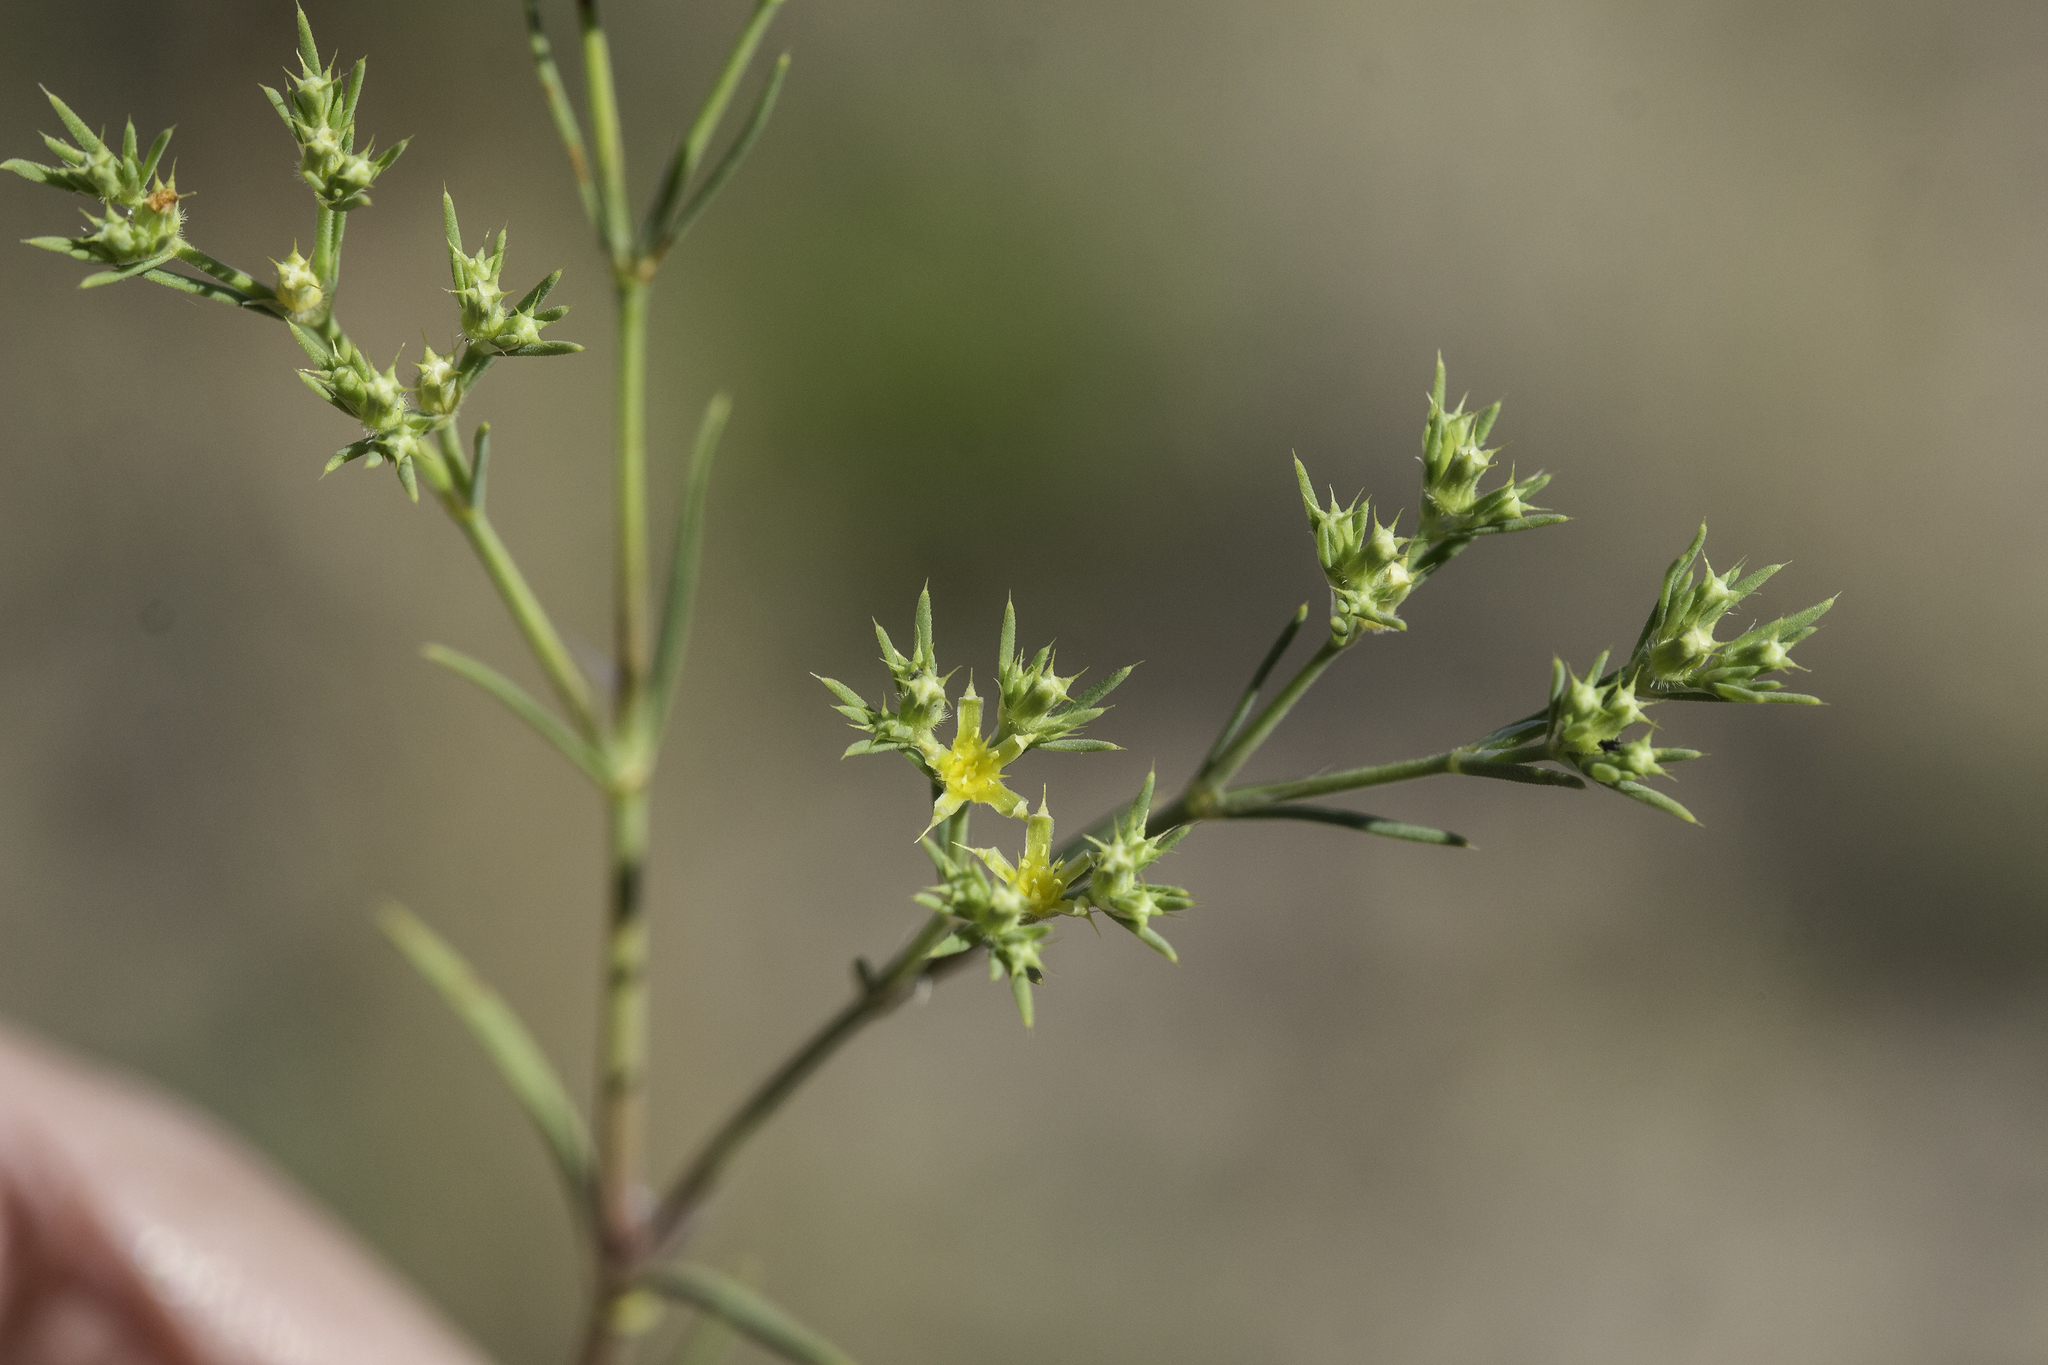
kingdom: Plantae
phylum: Tracheophyta
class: Magnoliopsida
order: Caryophyllales
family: Caryophyllaceae
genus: Paronychia
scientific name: Paronychia jamesii
